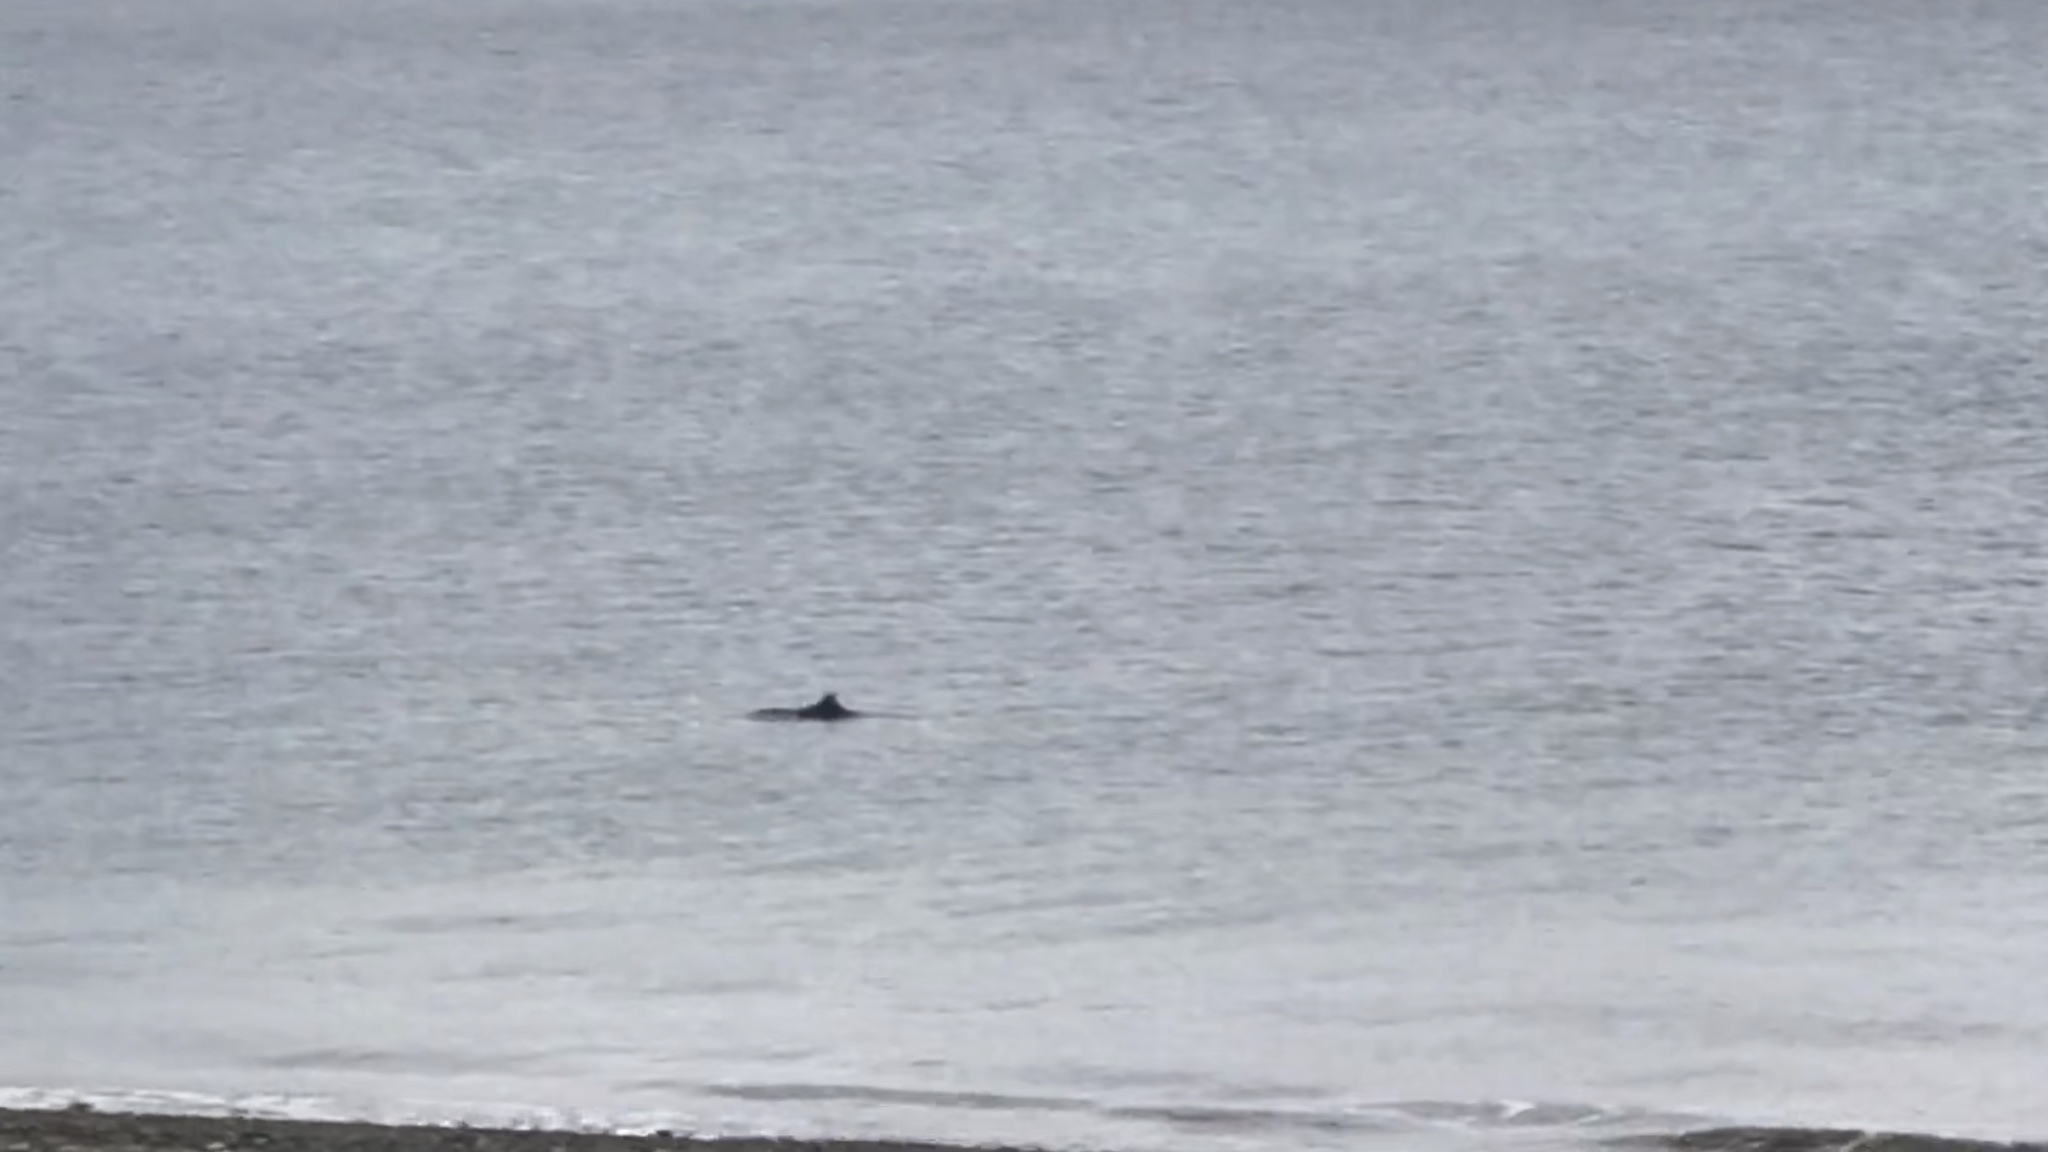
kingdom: Animalia
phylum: Chordata
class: Mammalia
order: Cetacea
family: Phocoenidae
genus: Phocoena
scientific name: Phocoena phocoena
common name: Harbor porpoise
